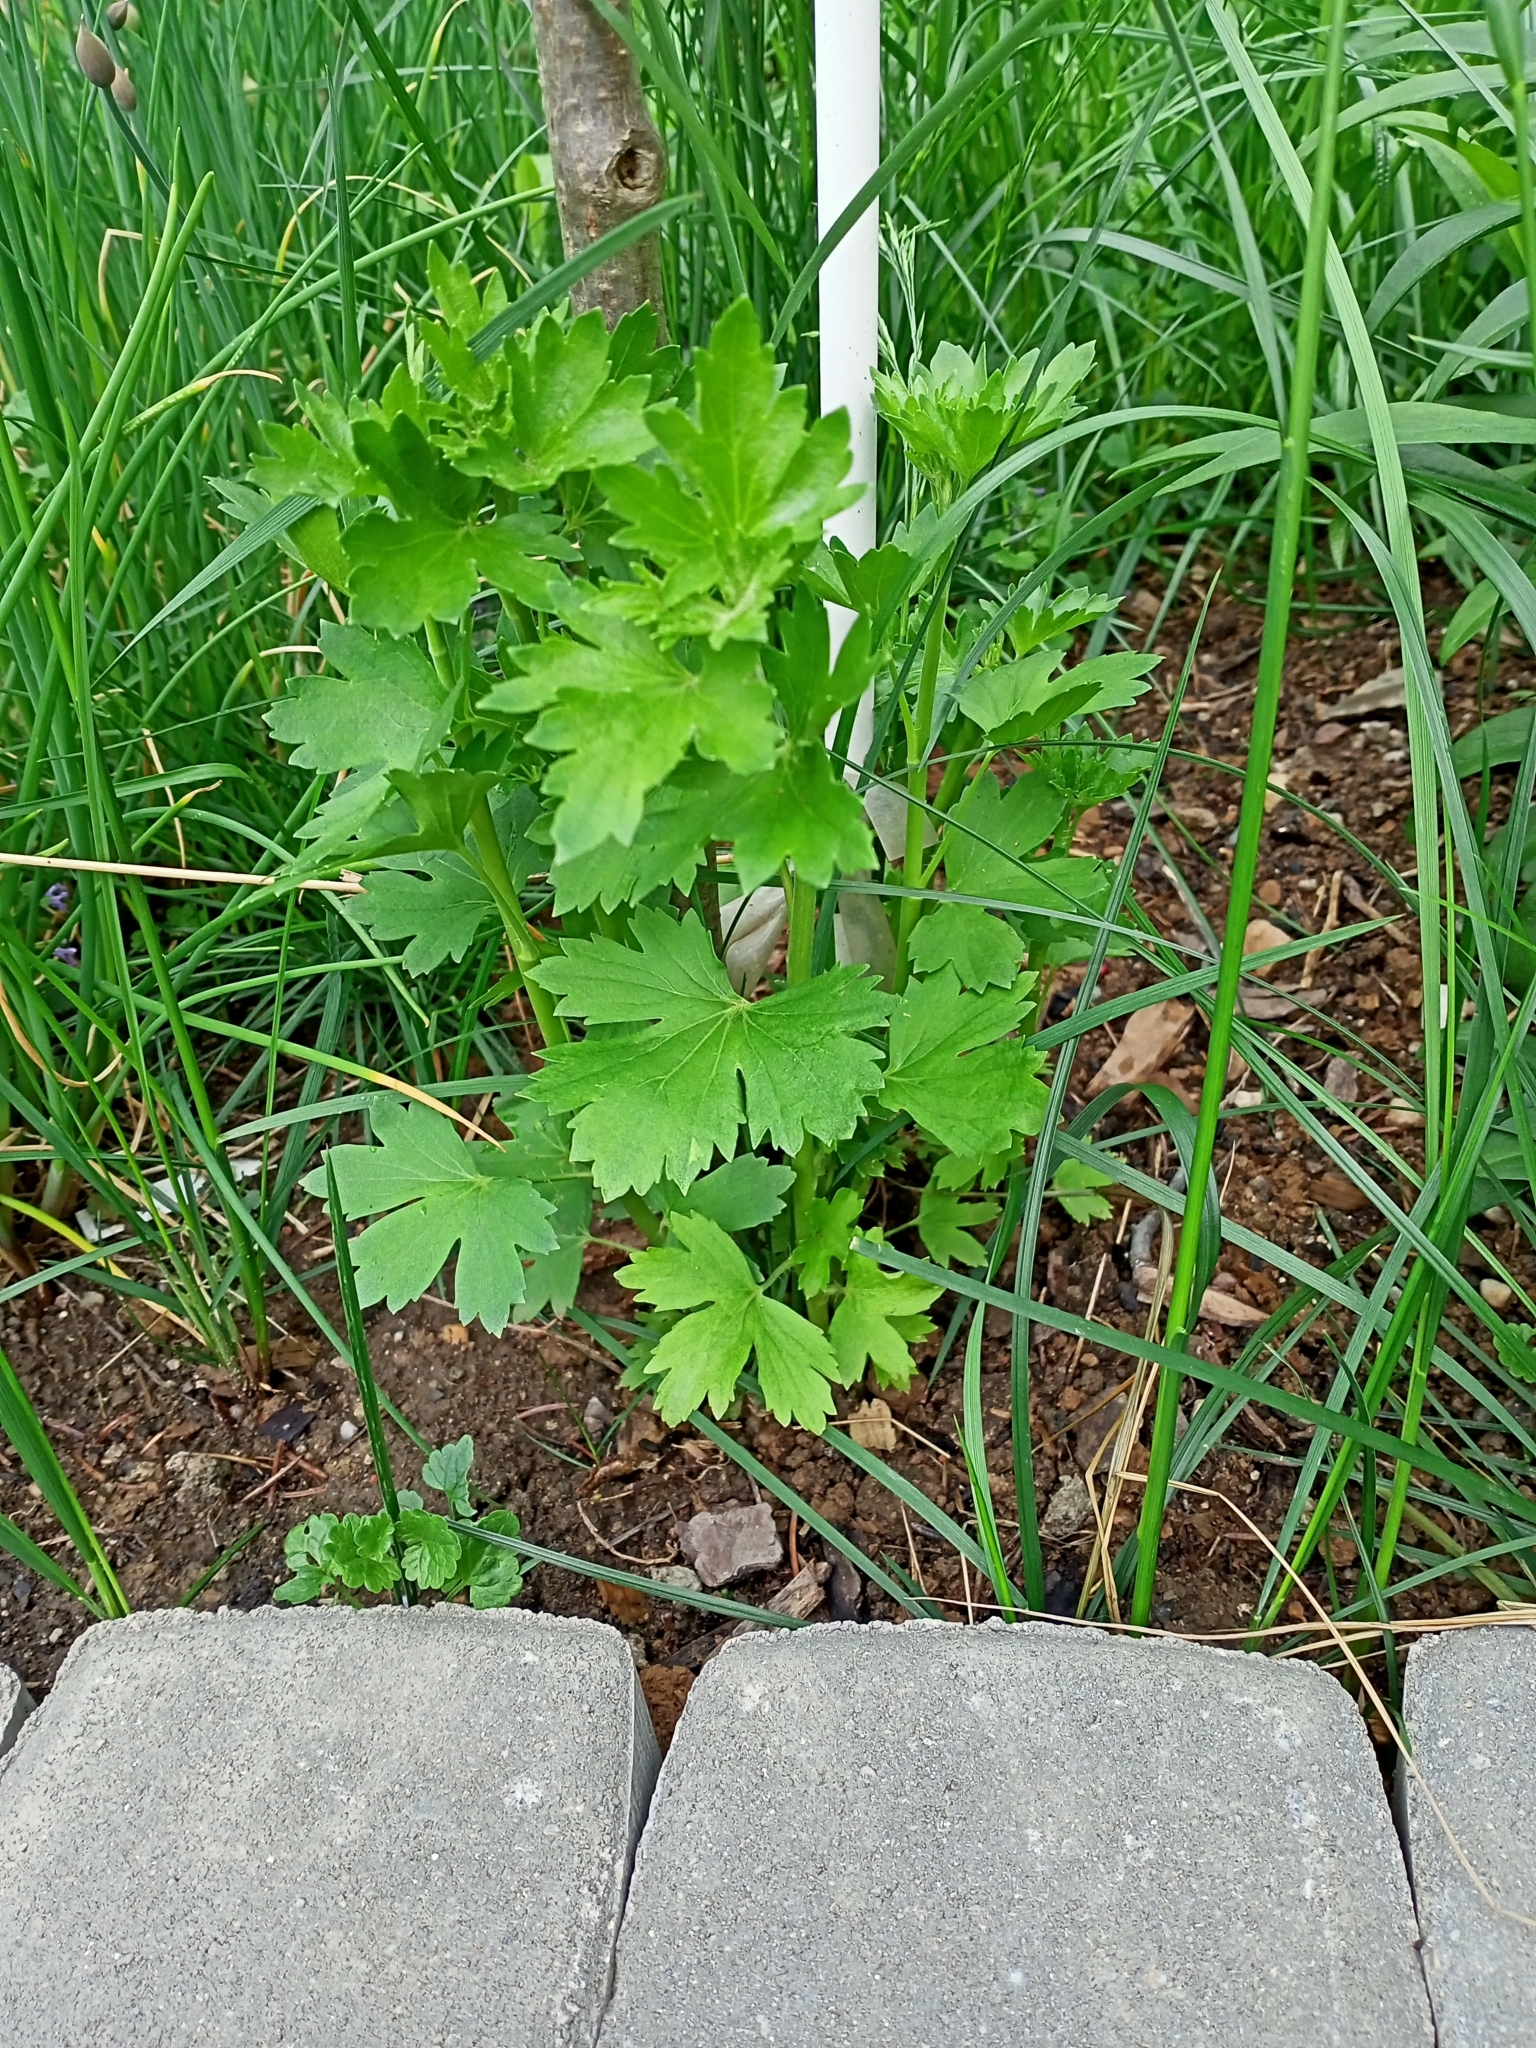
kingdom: Plantae
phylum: Tracheophyta
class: Magnoliopsida
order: Saxifragales
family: Grossulariaceae
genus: Ribes
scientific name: Ribes aureum
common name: Golden currant
